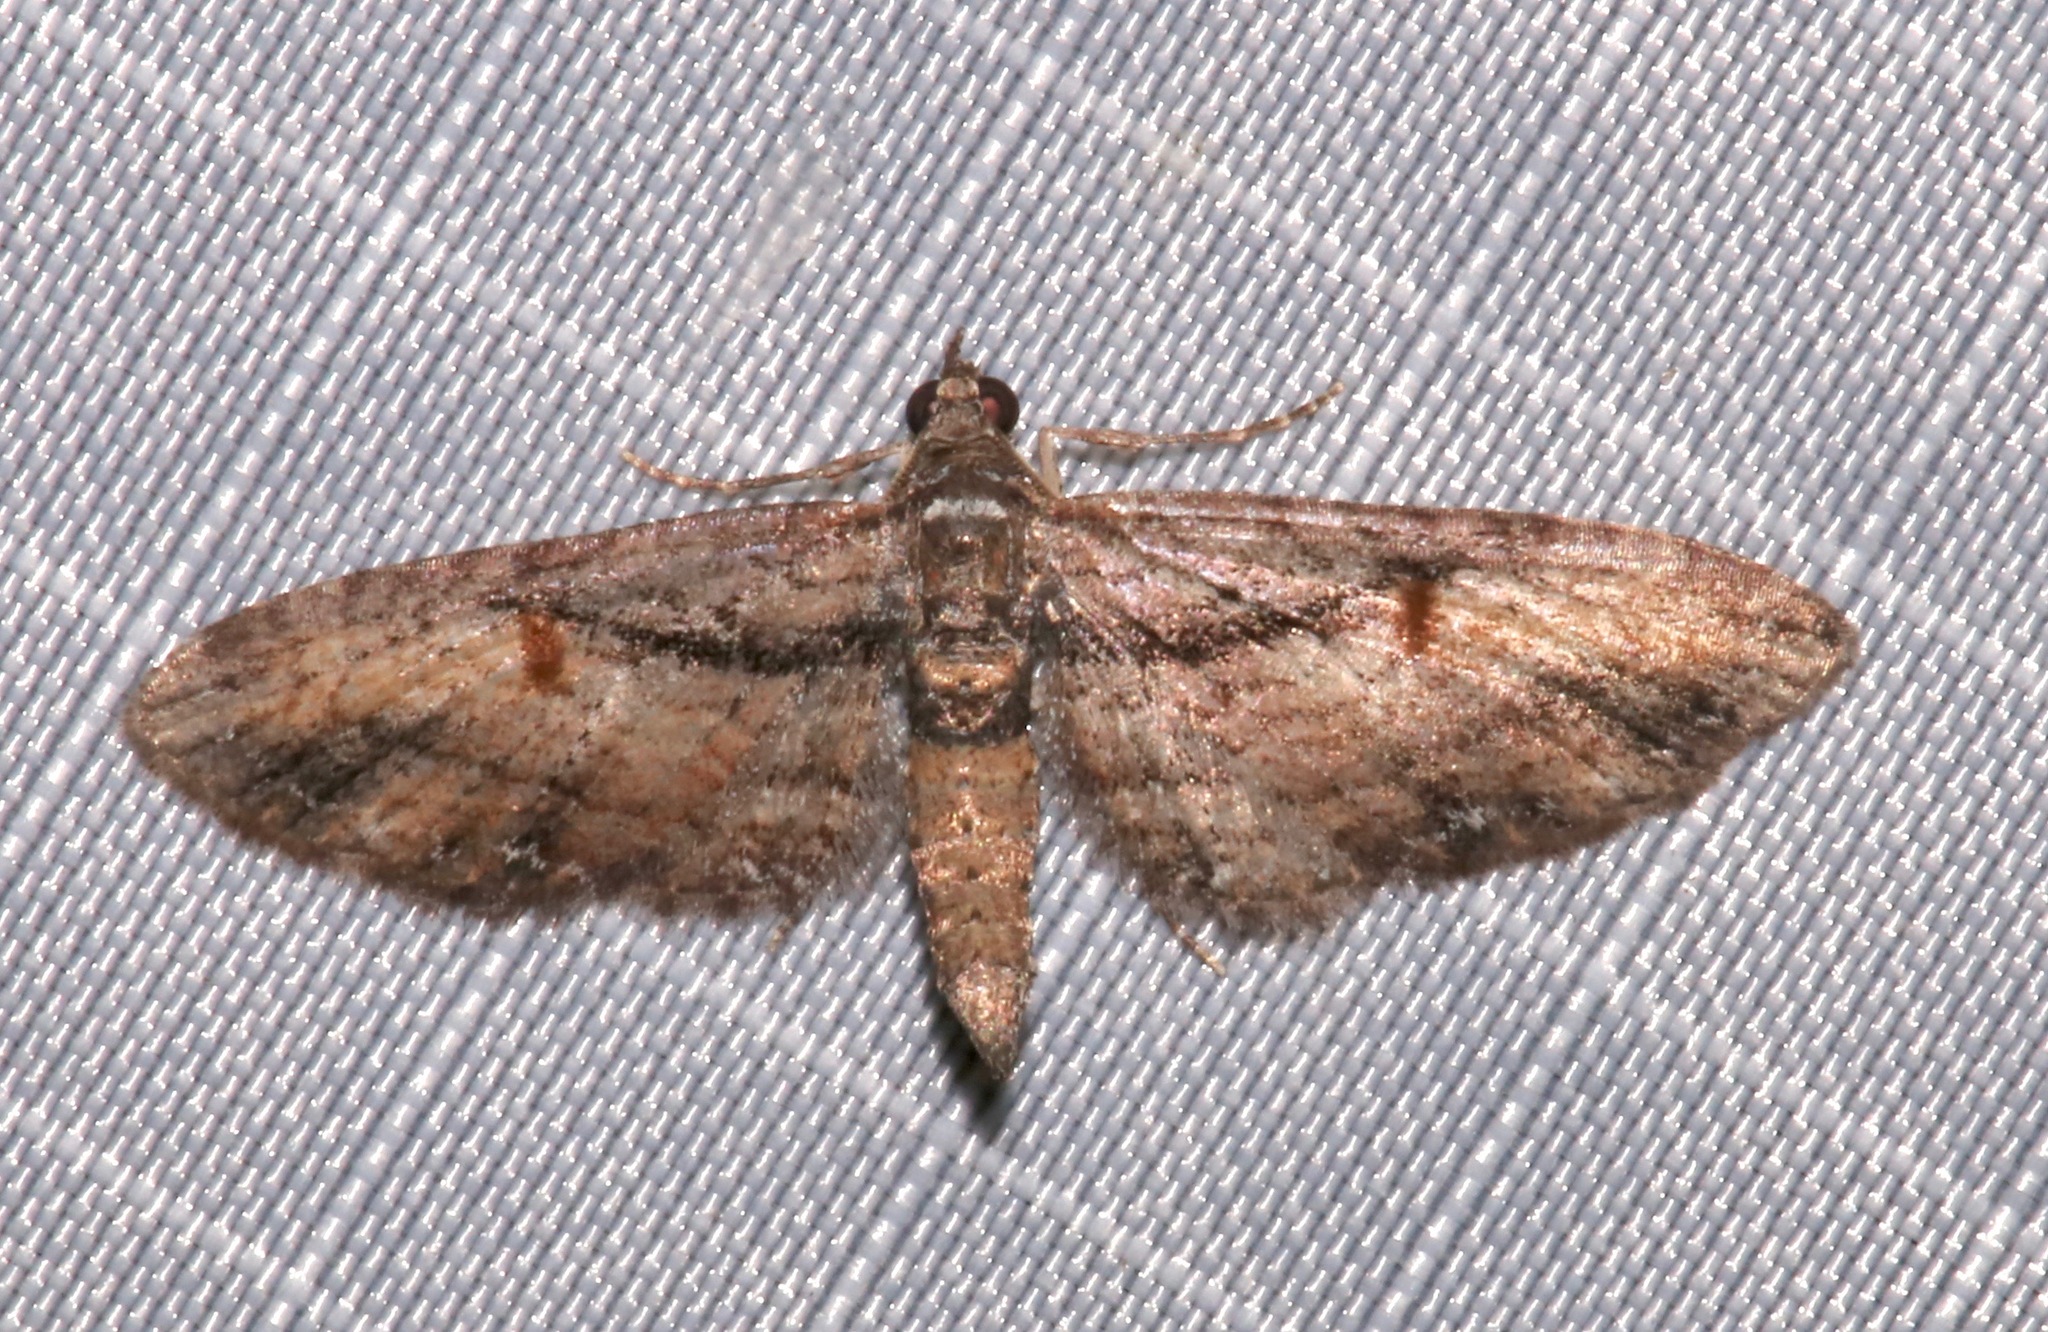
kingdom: Animalia
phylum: Arthropoda
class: Insecta
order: Lepidoptera
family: Geometridae
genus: Eupithecia
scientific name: Eupithecia classicata
